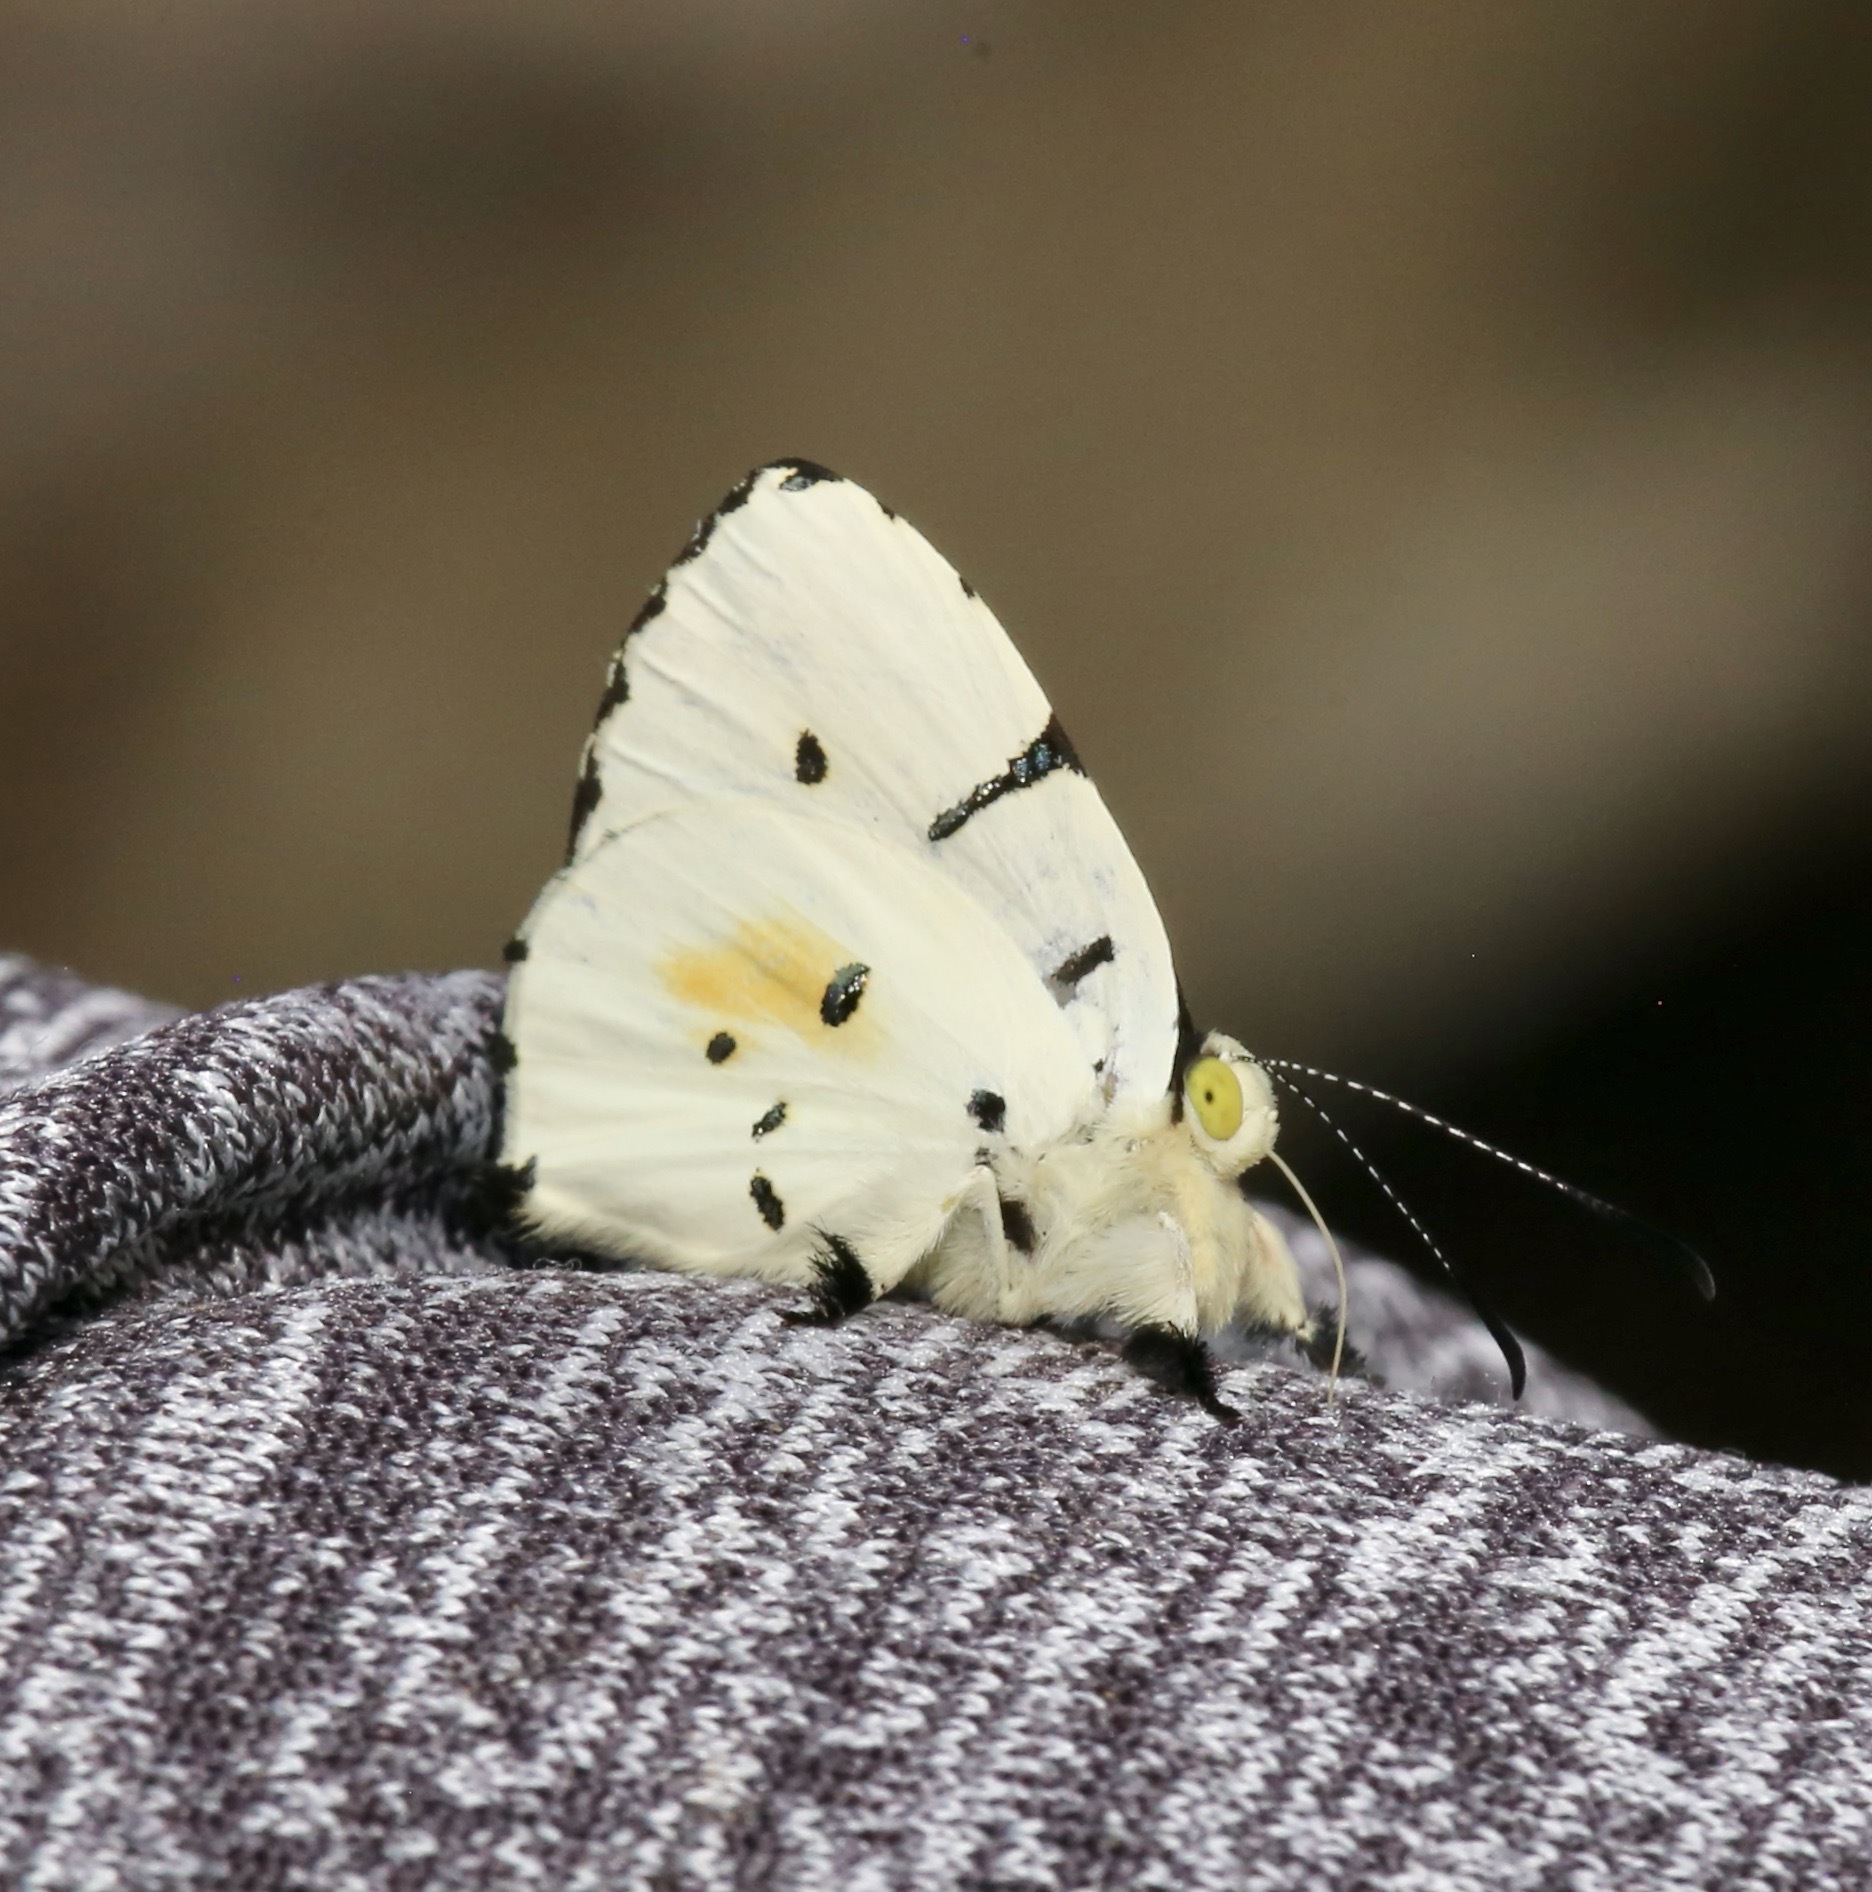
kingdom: Animalia
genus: Anteros
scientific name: Anteros allectus
